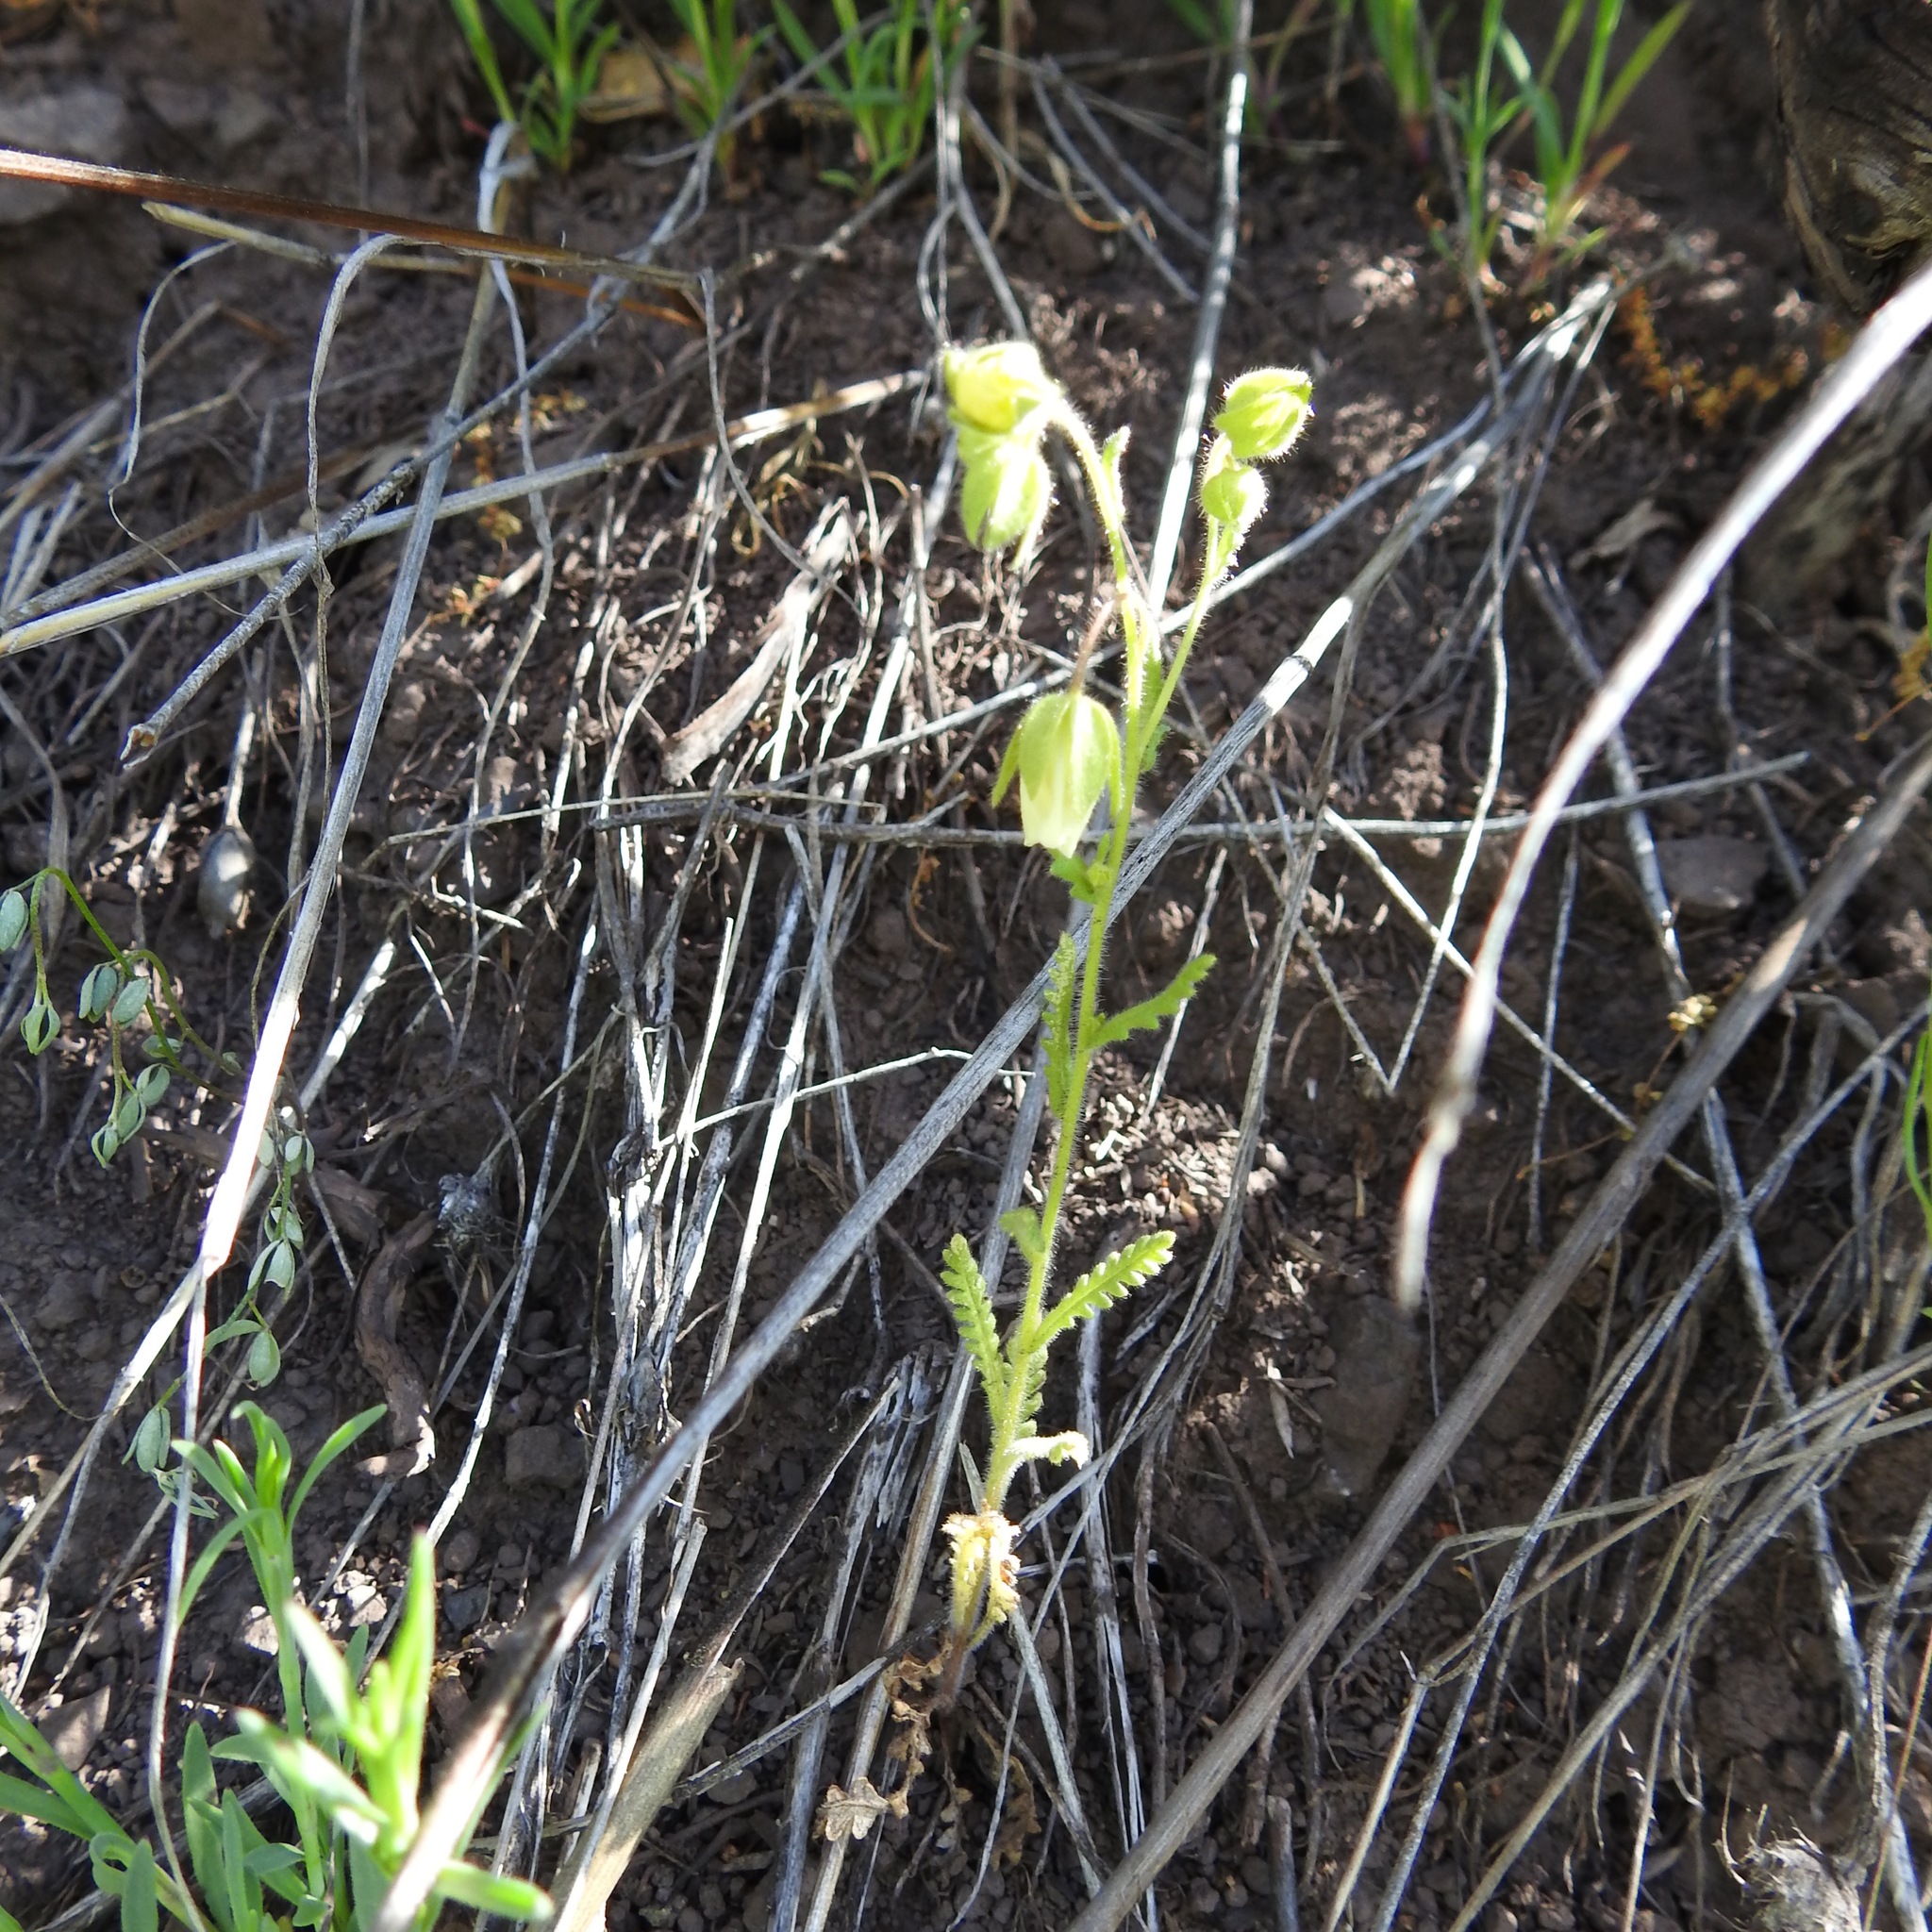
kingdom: Plantae
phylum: Tracheophyta
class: Magnoliopsida
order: Boraginales
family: Hydrophyllaceae
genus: Emmenanthe
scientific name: Emmenanthe penduliflora
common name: Whispering-bells
